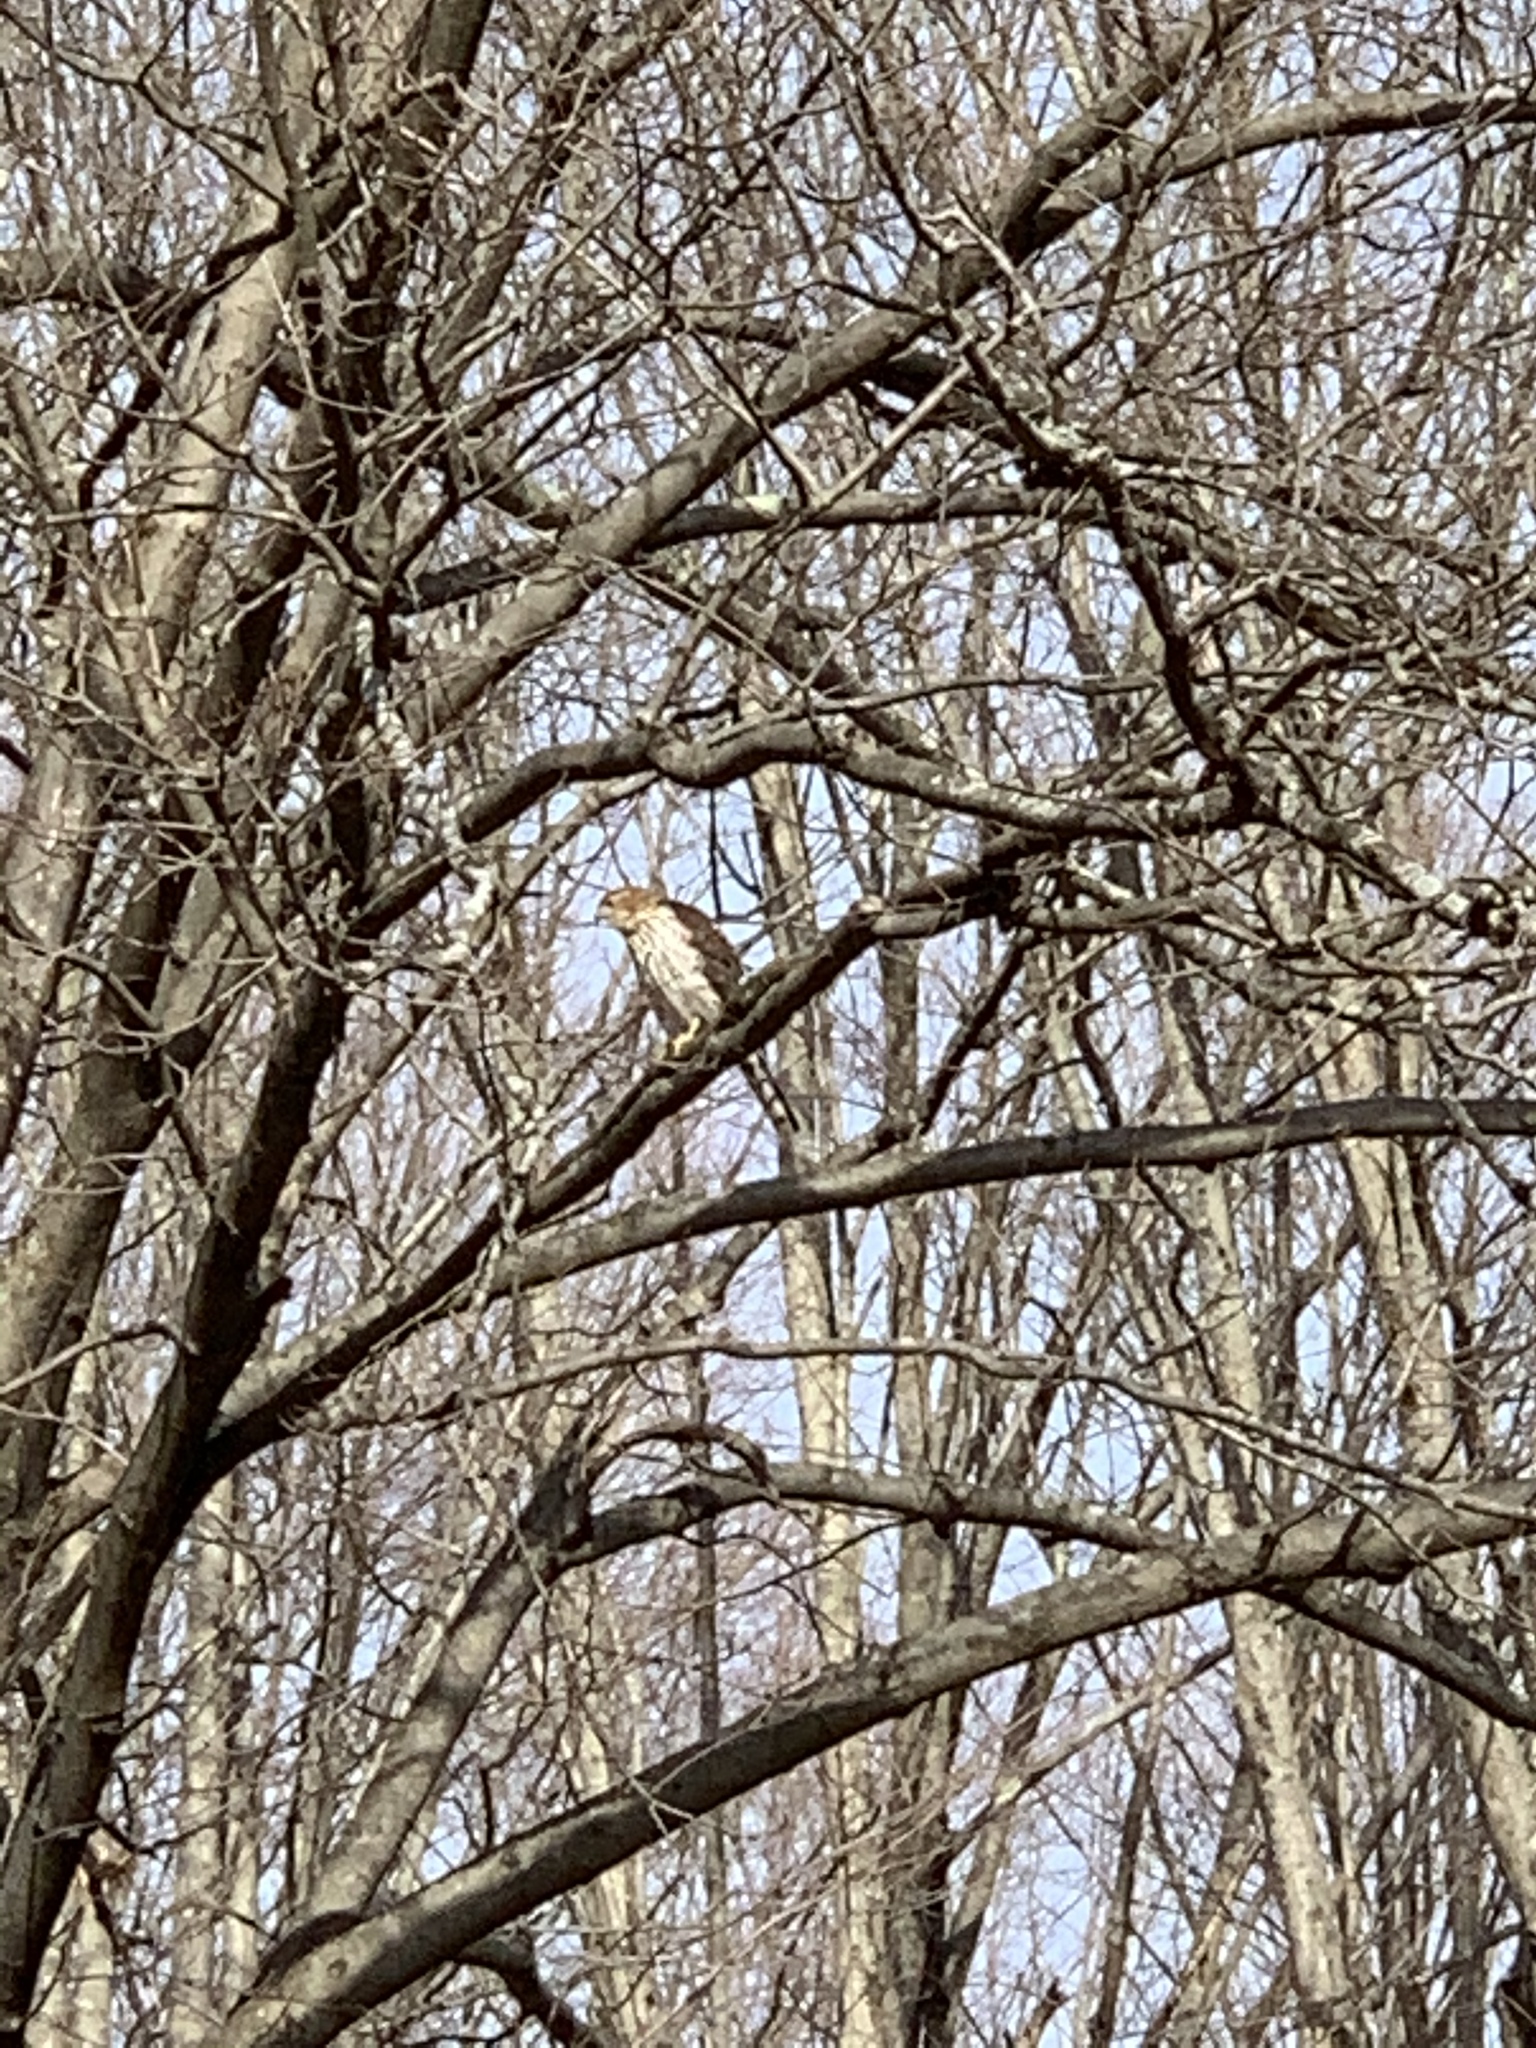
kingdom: Animalia
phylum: Chordata
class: Aves
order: Accipitriformes
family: Accipitridae
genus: Accipiter
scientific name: Accipiter cooperii
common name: Cooper's hawk
